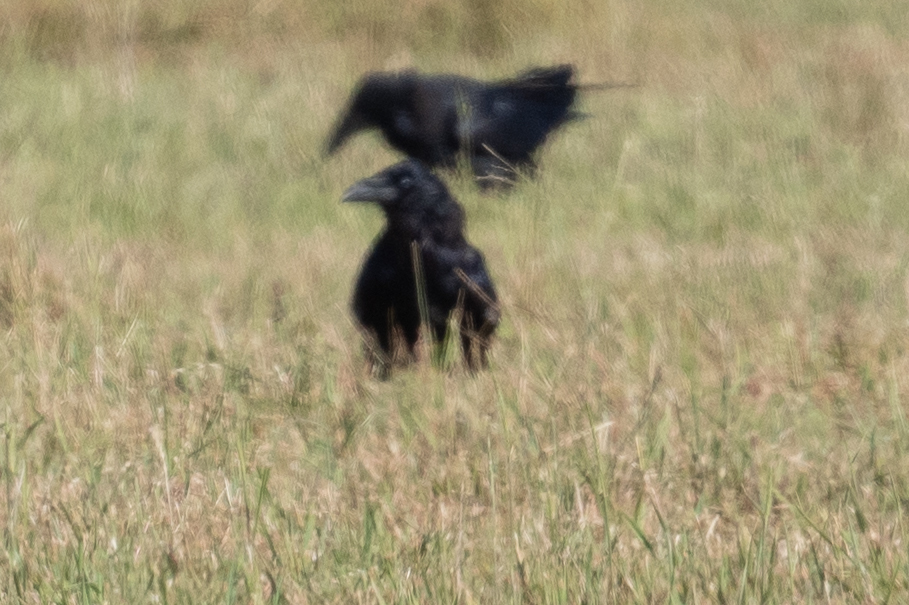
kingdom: Animalia
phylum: Chordata
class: Aves
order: Passeriformes
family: Corvidae
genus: Corvus
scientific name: Corvus brachyrhynchos
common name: American crow
